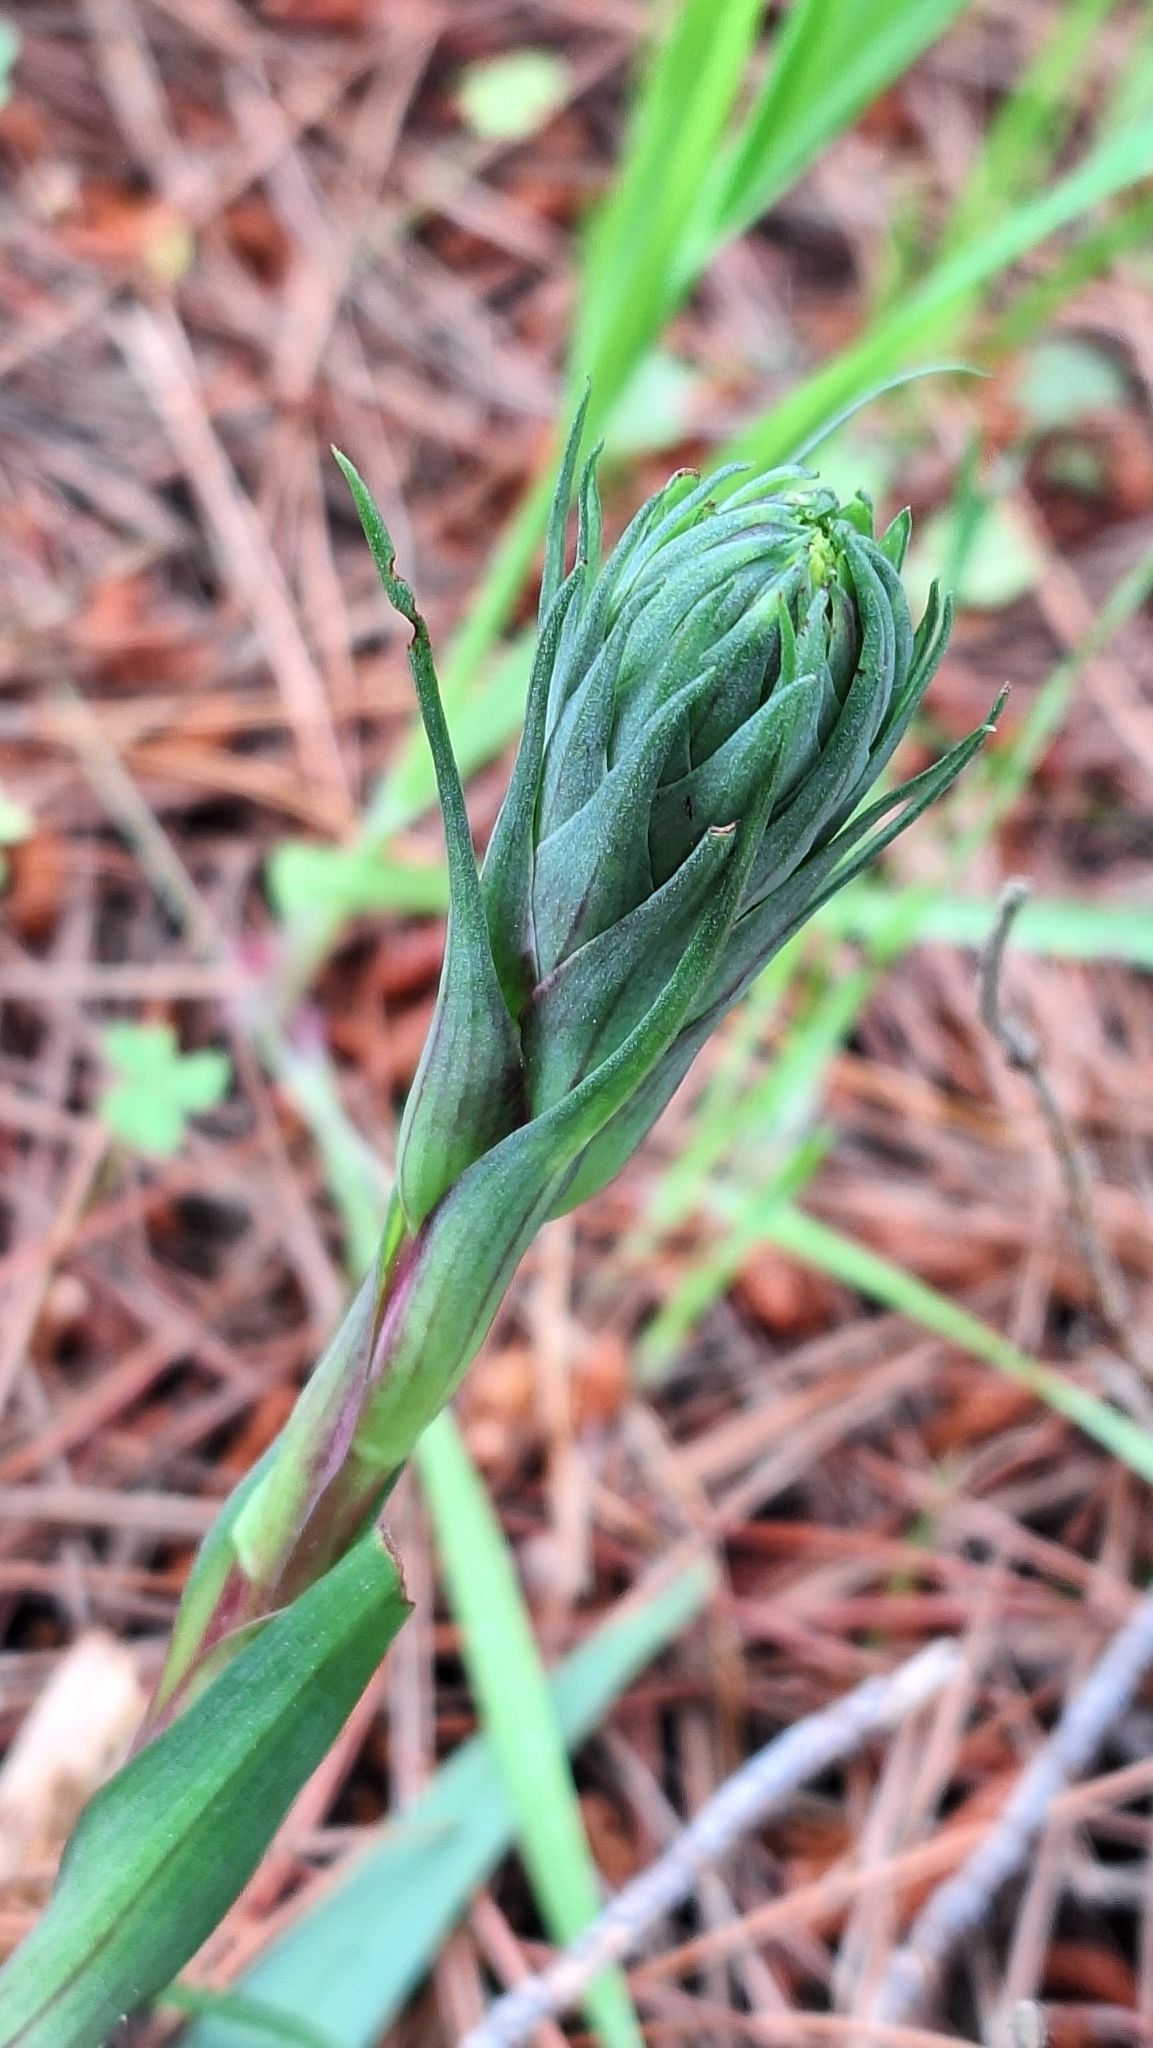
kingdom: Plantae
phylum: Tracheophyta
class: Liliopsida
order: Asparagales
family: Orchidaceae
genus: Disa
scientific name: Disa bracteata
